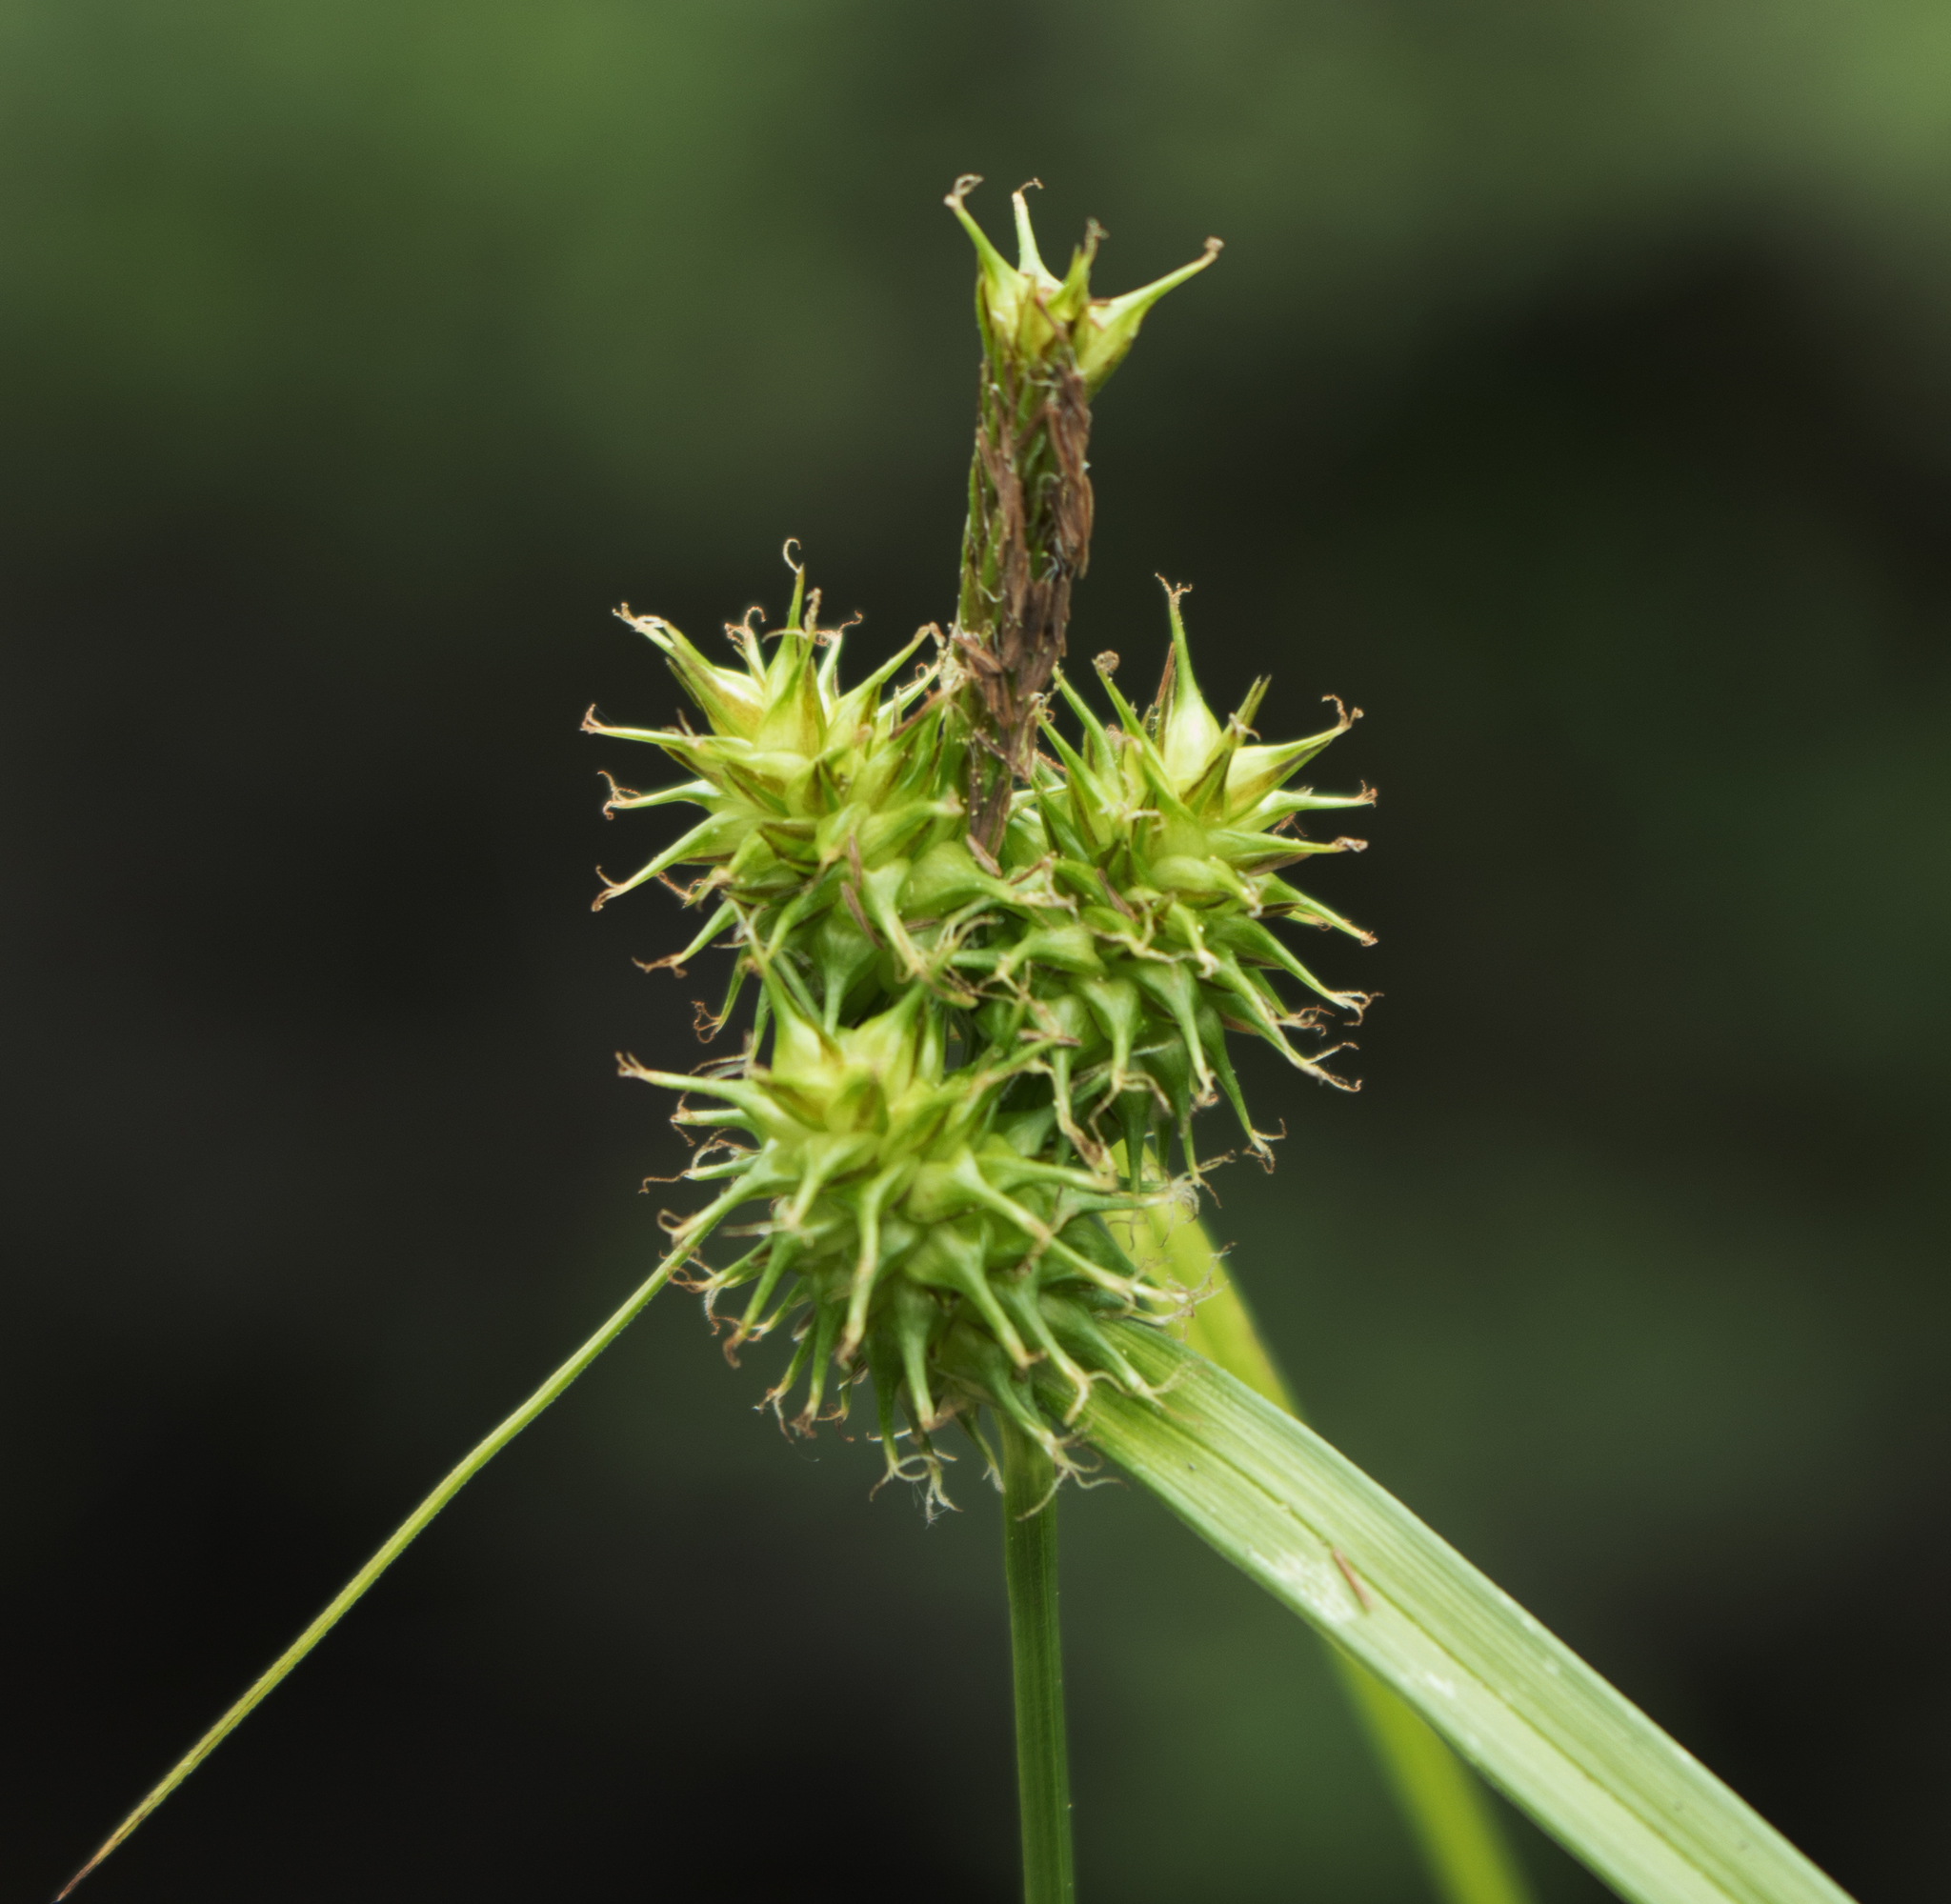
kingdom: Plantae
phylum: Tracheophyta
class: Liliopsida
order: Poales
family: Cyperaceae
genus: Carex
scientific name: Carex flava
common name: Large yellow-sedge
